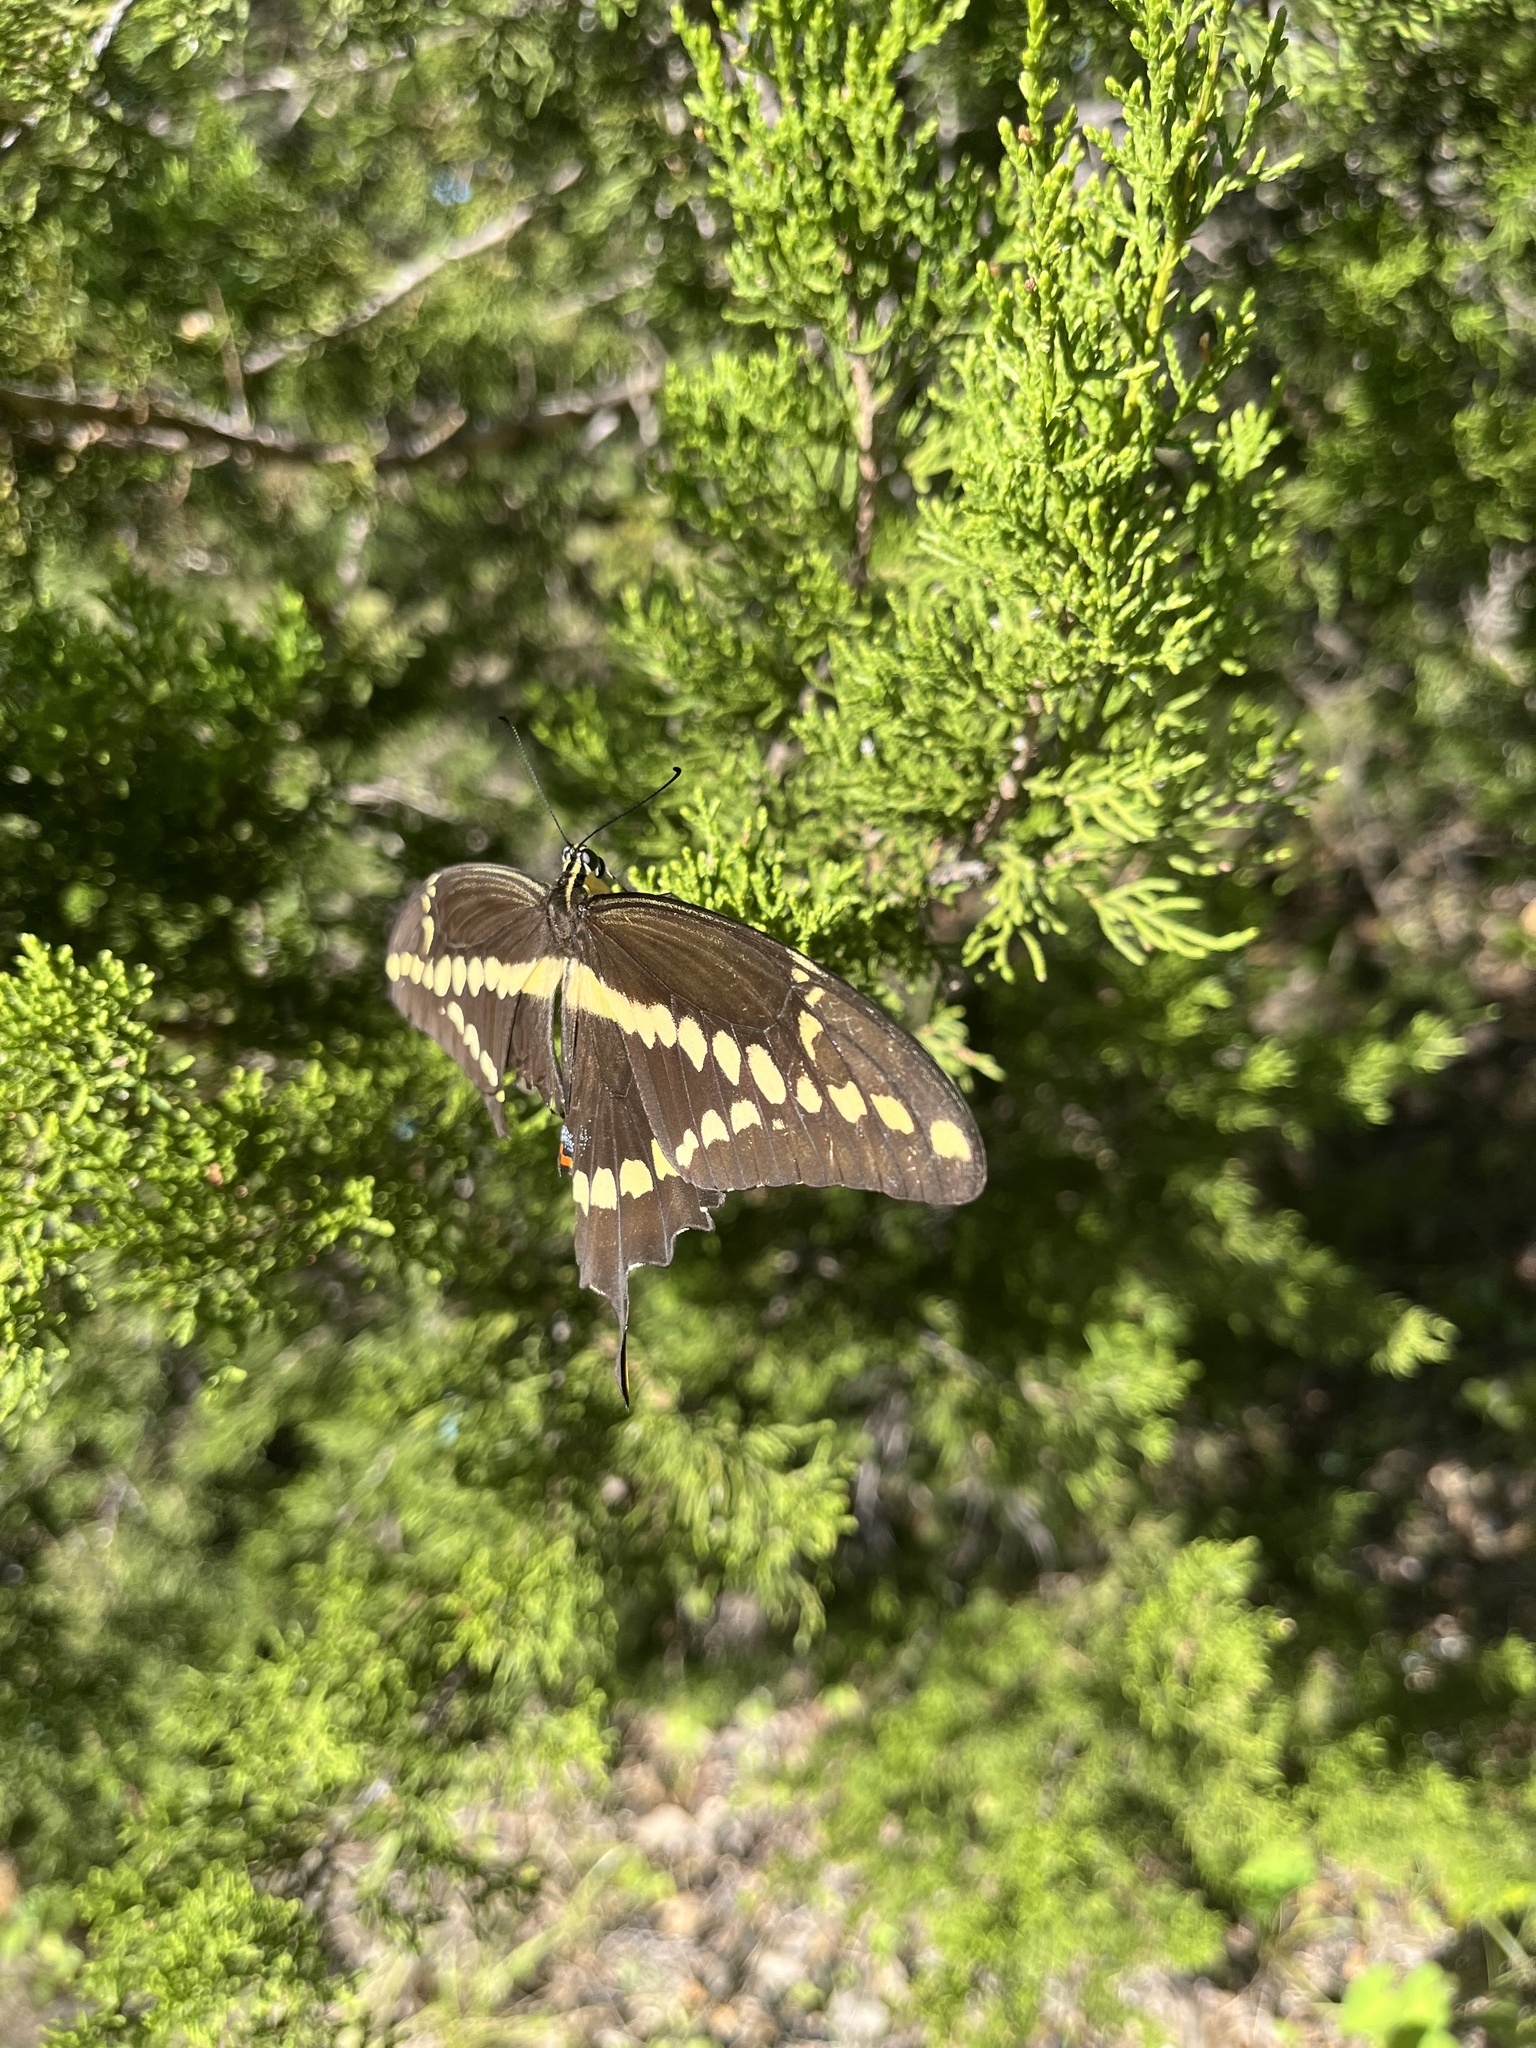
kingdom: Animalia
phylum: Arthropoda
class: Insecta
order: Lepidoptera
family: Papilionidae
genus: Papilio
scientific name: Papilio rumiko
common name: Western giant swallowtail
